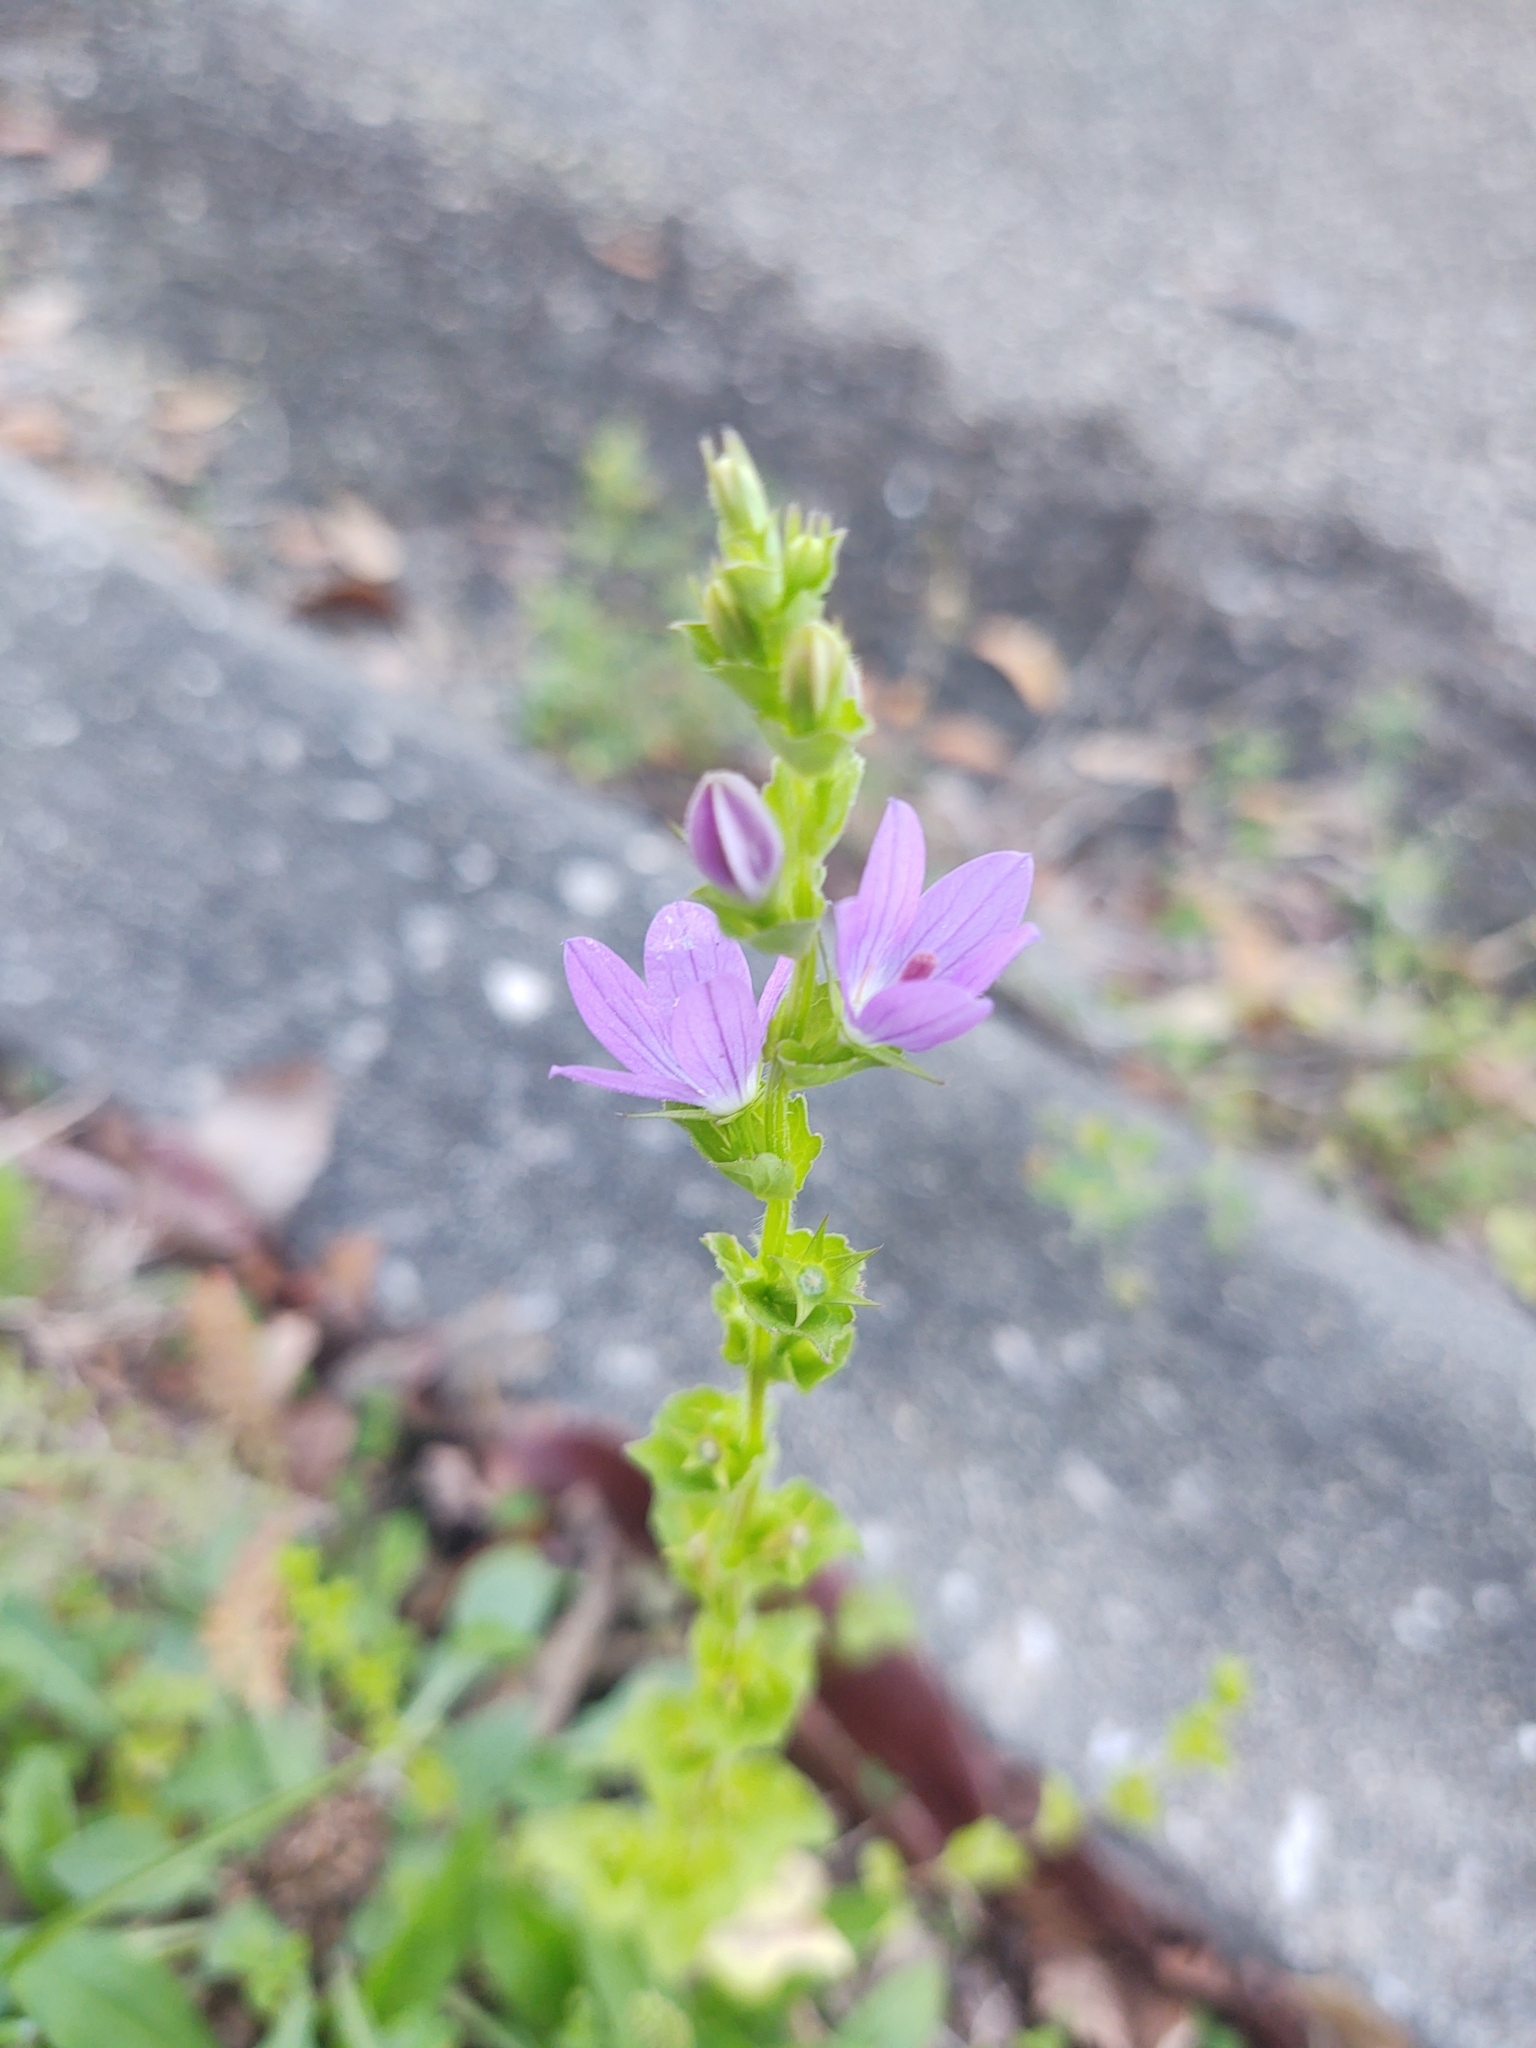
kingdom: Plantae
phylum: Tracheophyta
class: Magnoliopsida
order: Asterales
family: Campanulaceae
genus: Triodanis
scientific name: Triodanis perfoliata
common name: Clasping venus' looking-glass
